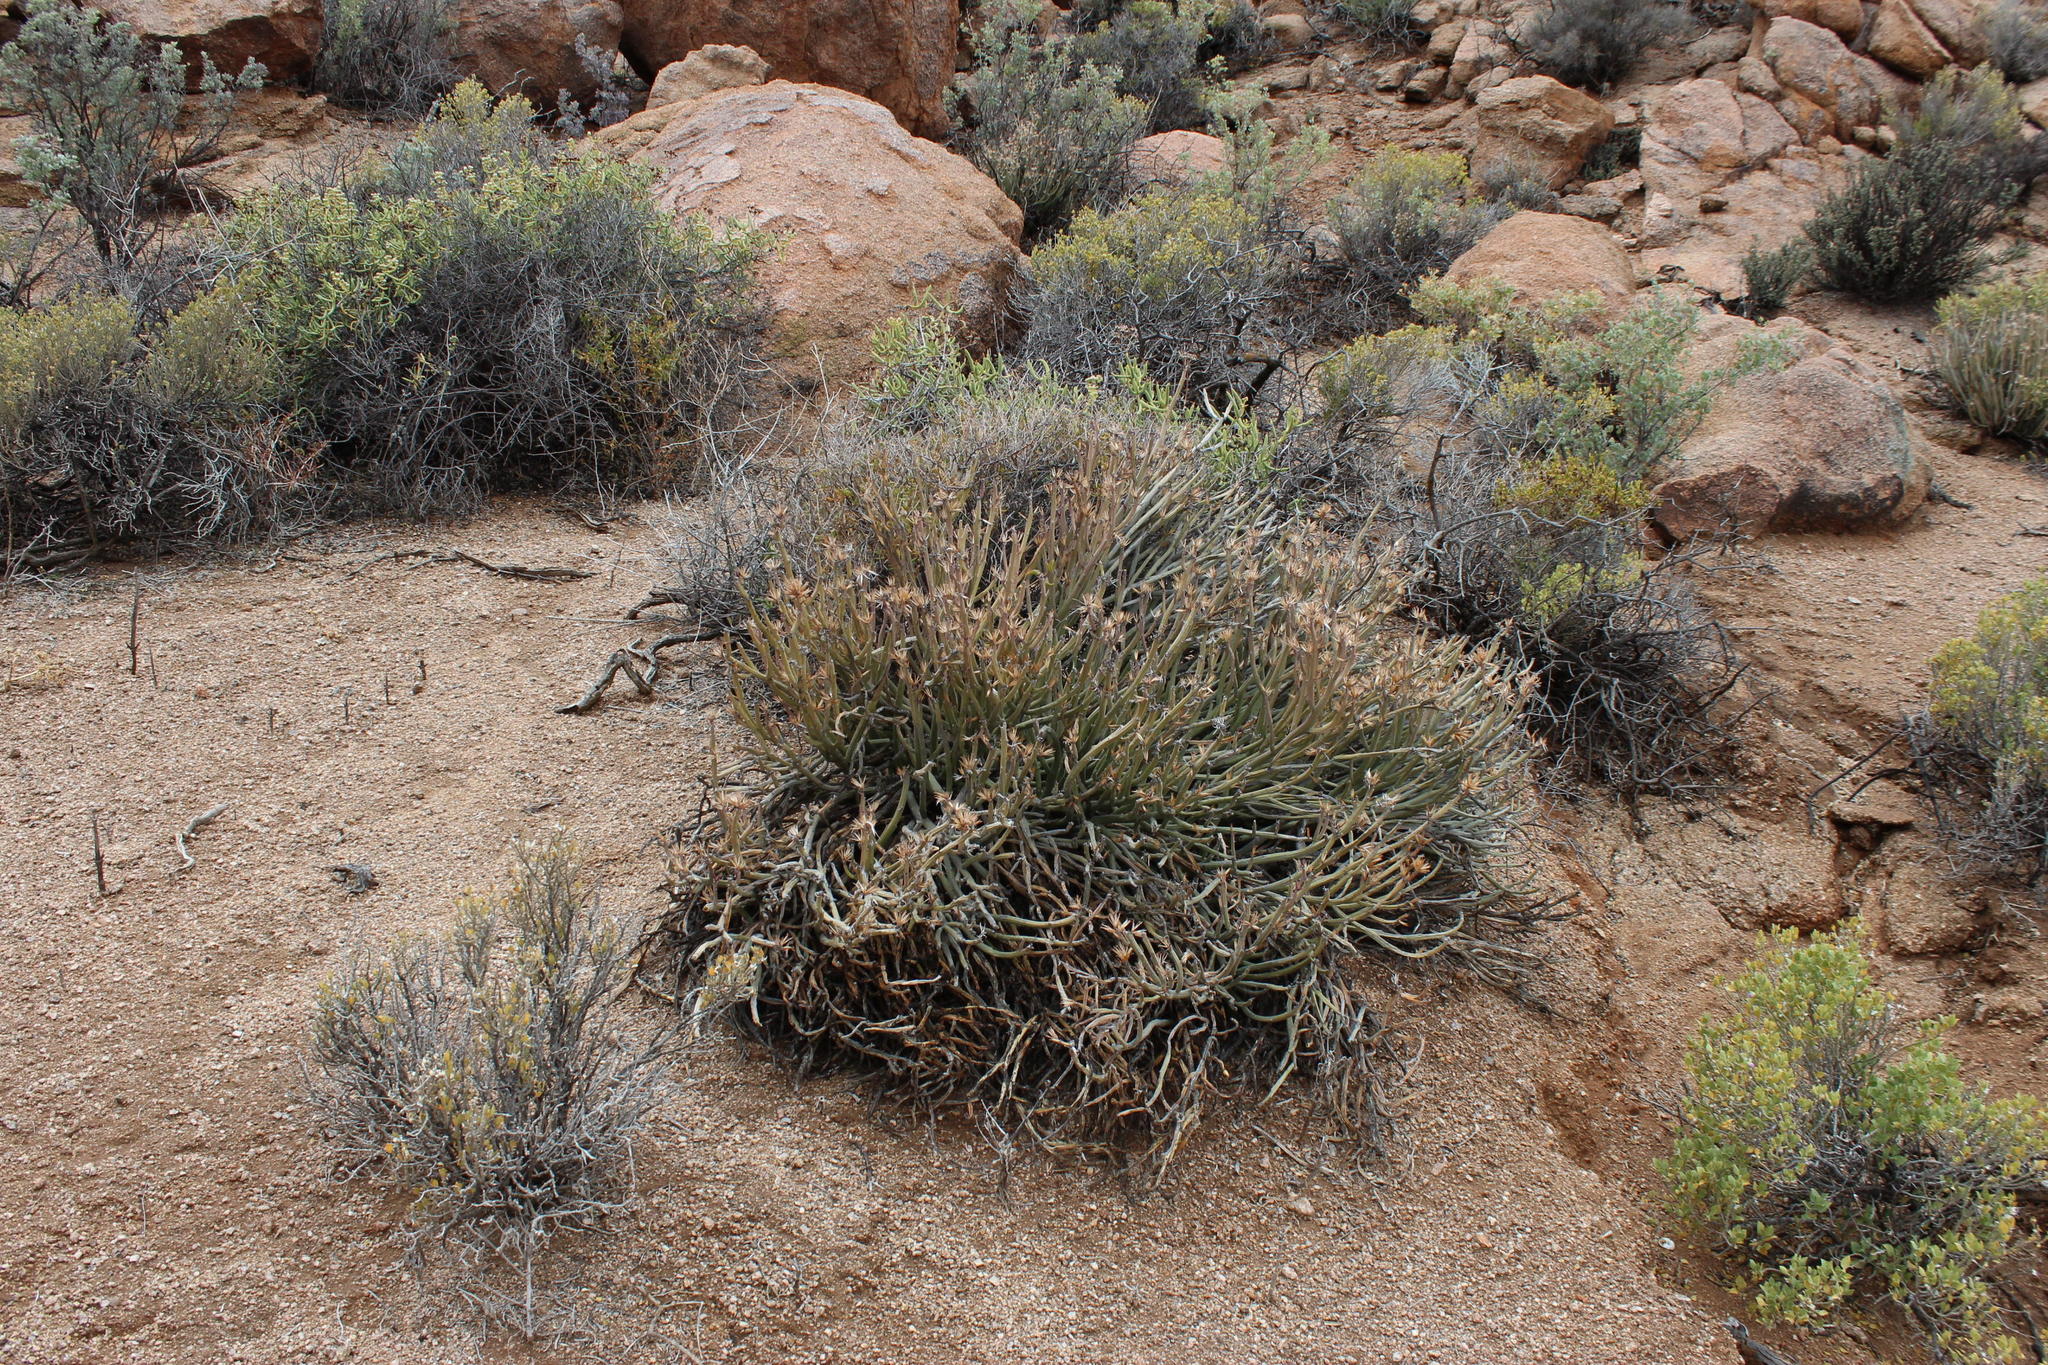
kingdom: Plantae
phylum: Tracheophyta
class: Magnoliopsida
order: Asterales
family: Asteraceae
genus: Curio
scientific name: Curio avasimontanus
